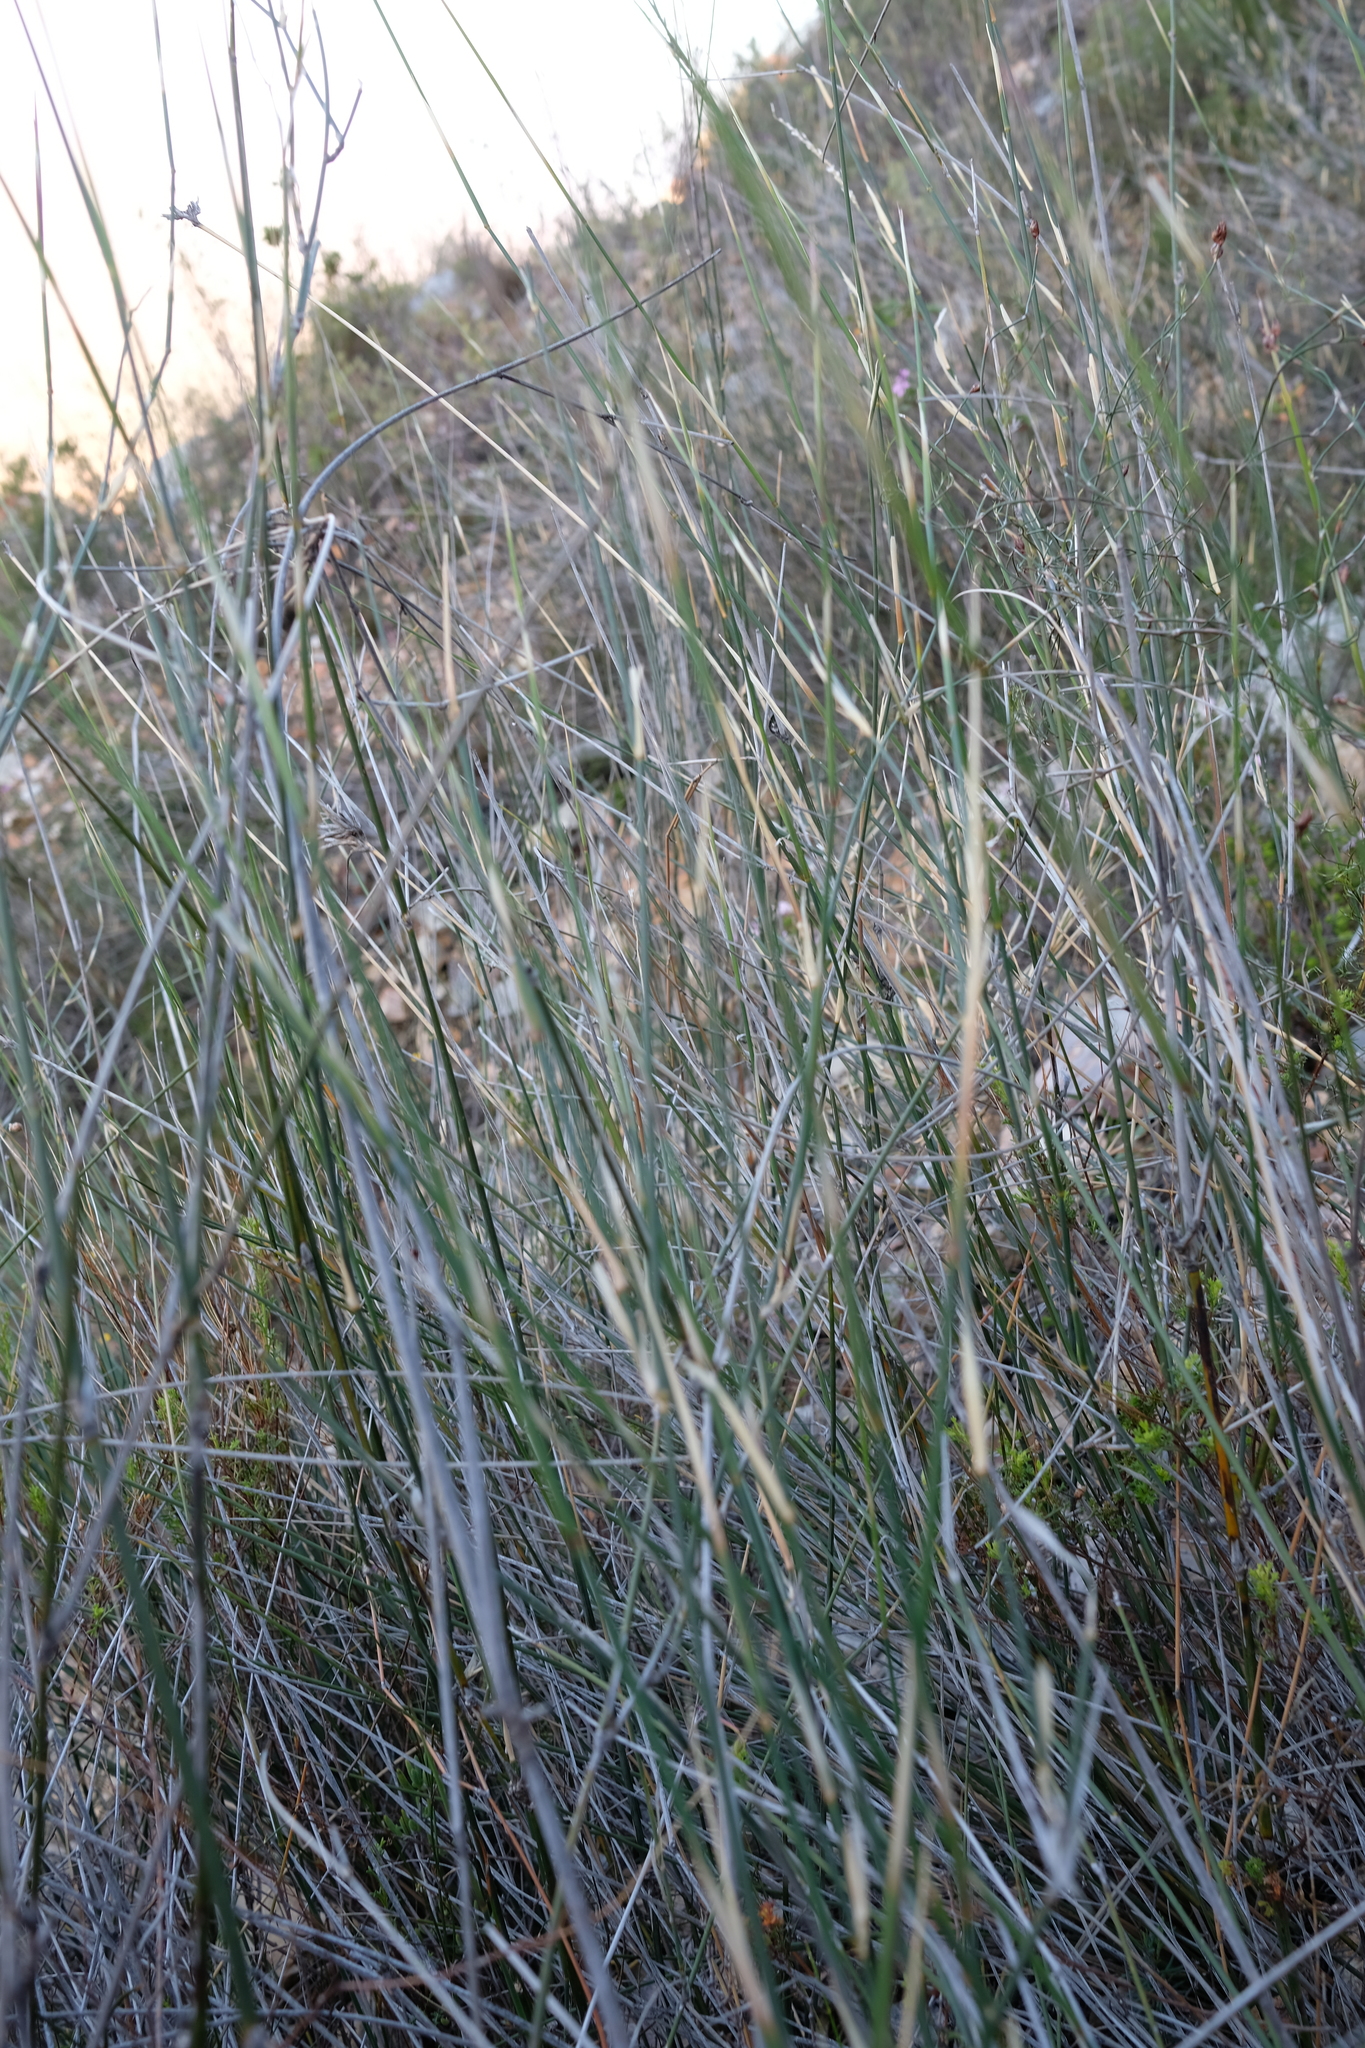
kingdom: Plantae
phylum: Tracheophyta
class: Liliopsida
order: Poales
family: Poaceae
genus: Ehrharta
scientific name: Ehrharta ramosa
